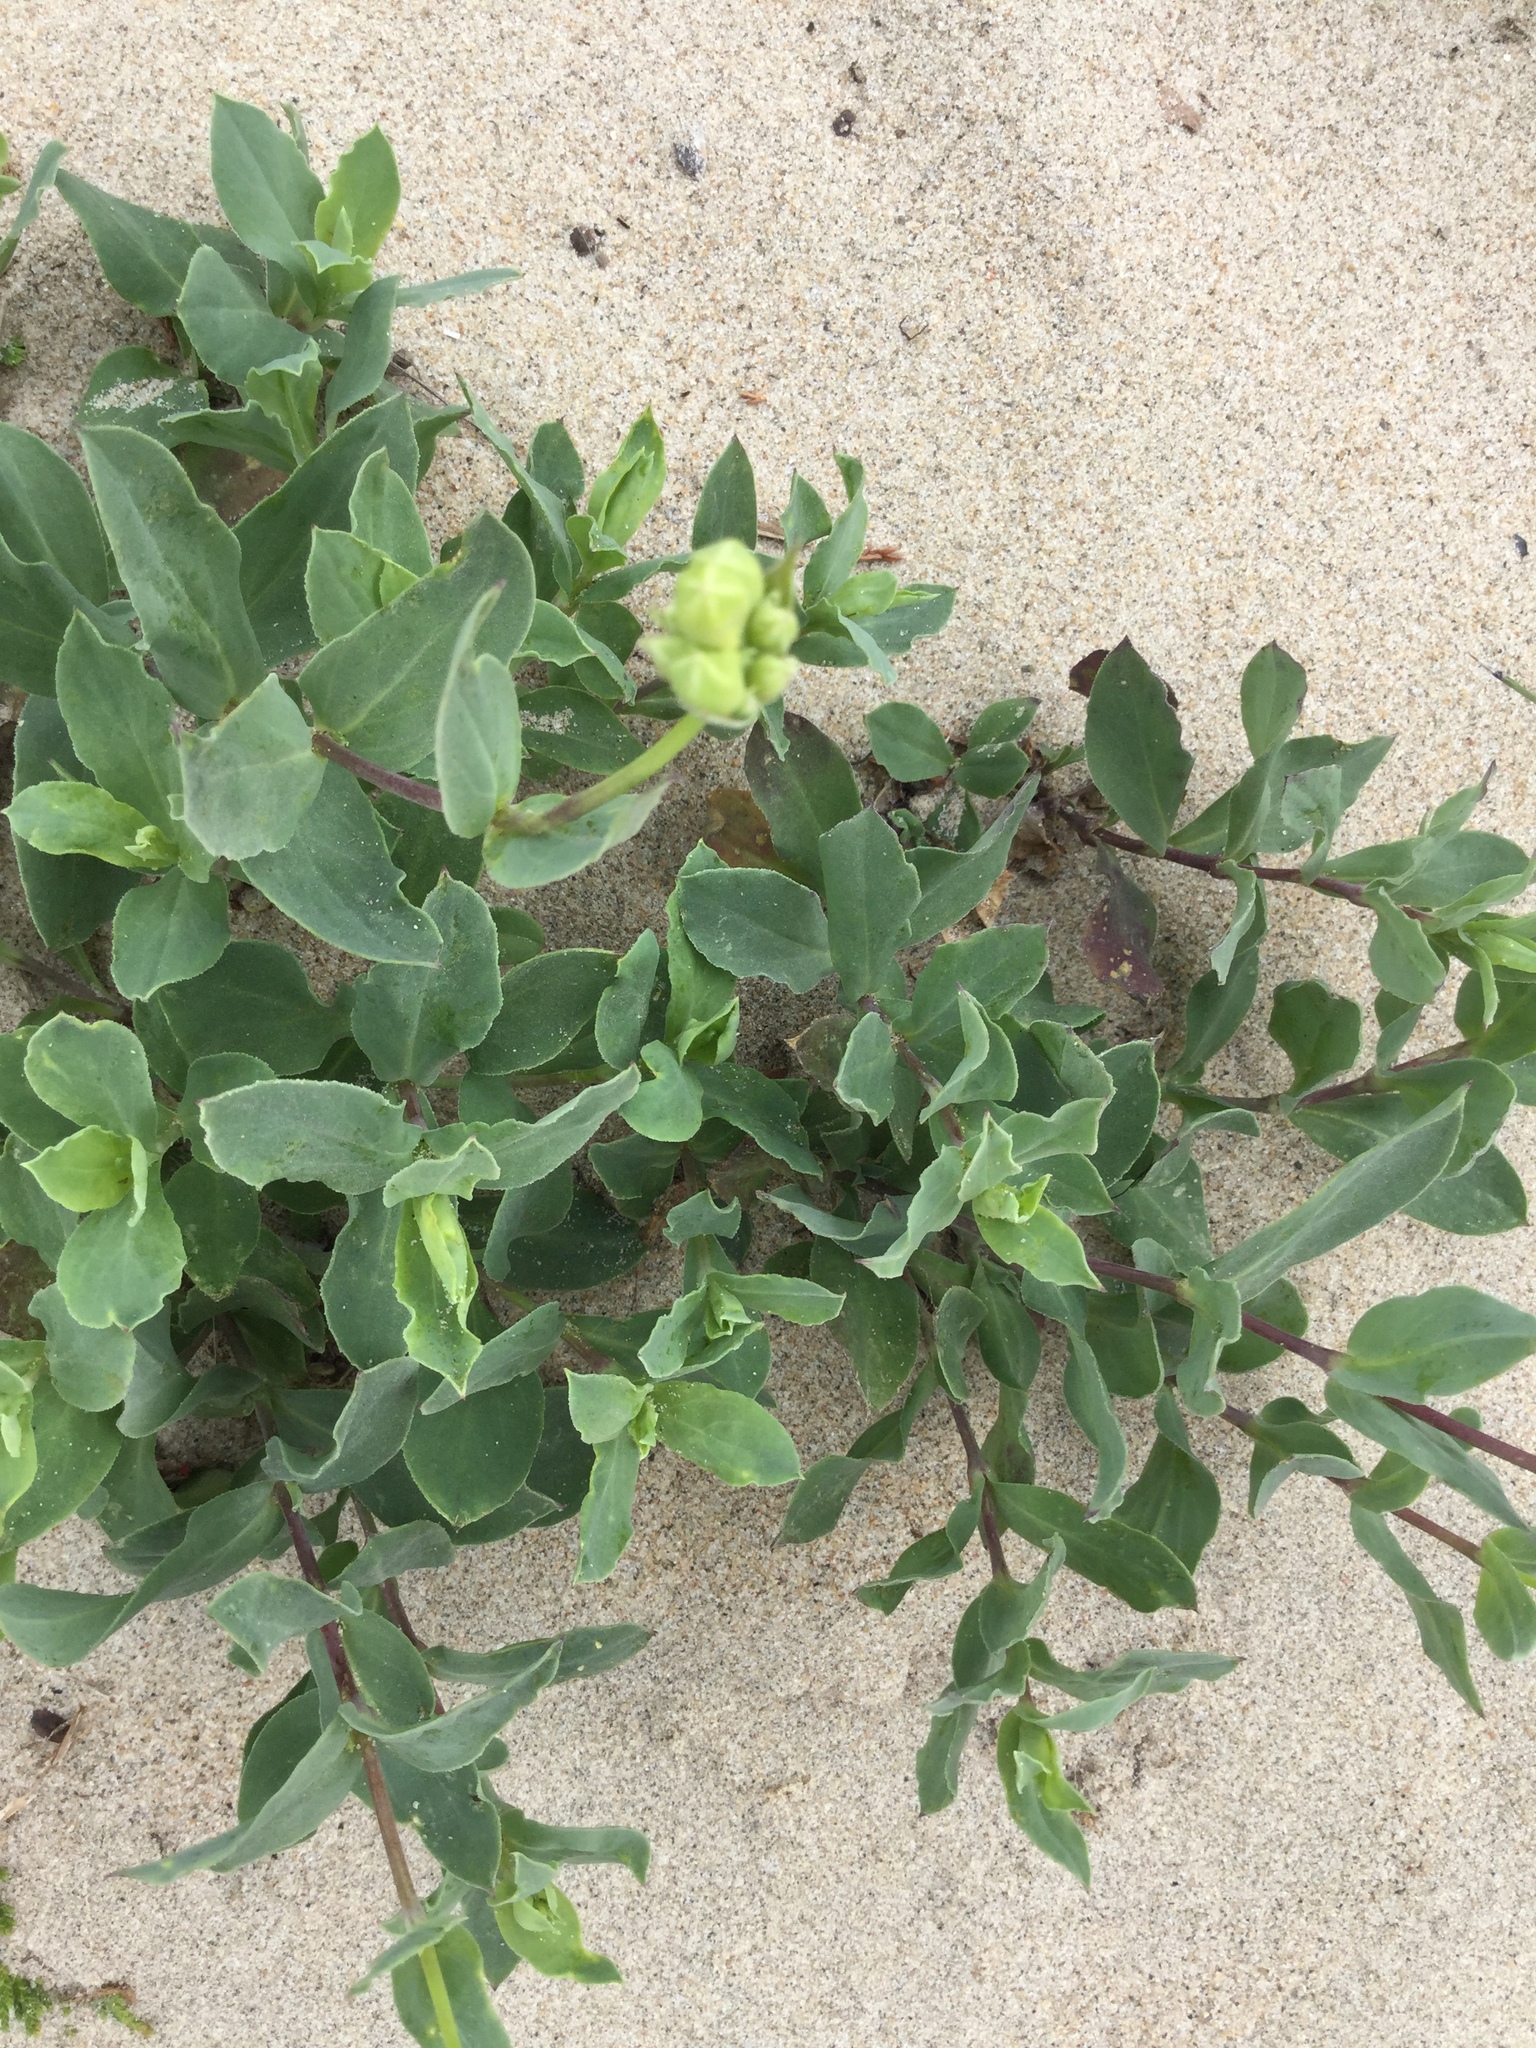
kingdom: Plantae
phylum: Tracheophyta
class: Magnoliopsida
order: Caryophyllales
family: Caryophyllaceae
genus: Silene
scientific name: Silene vulgaris
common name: Bladder campion
